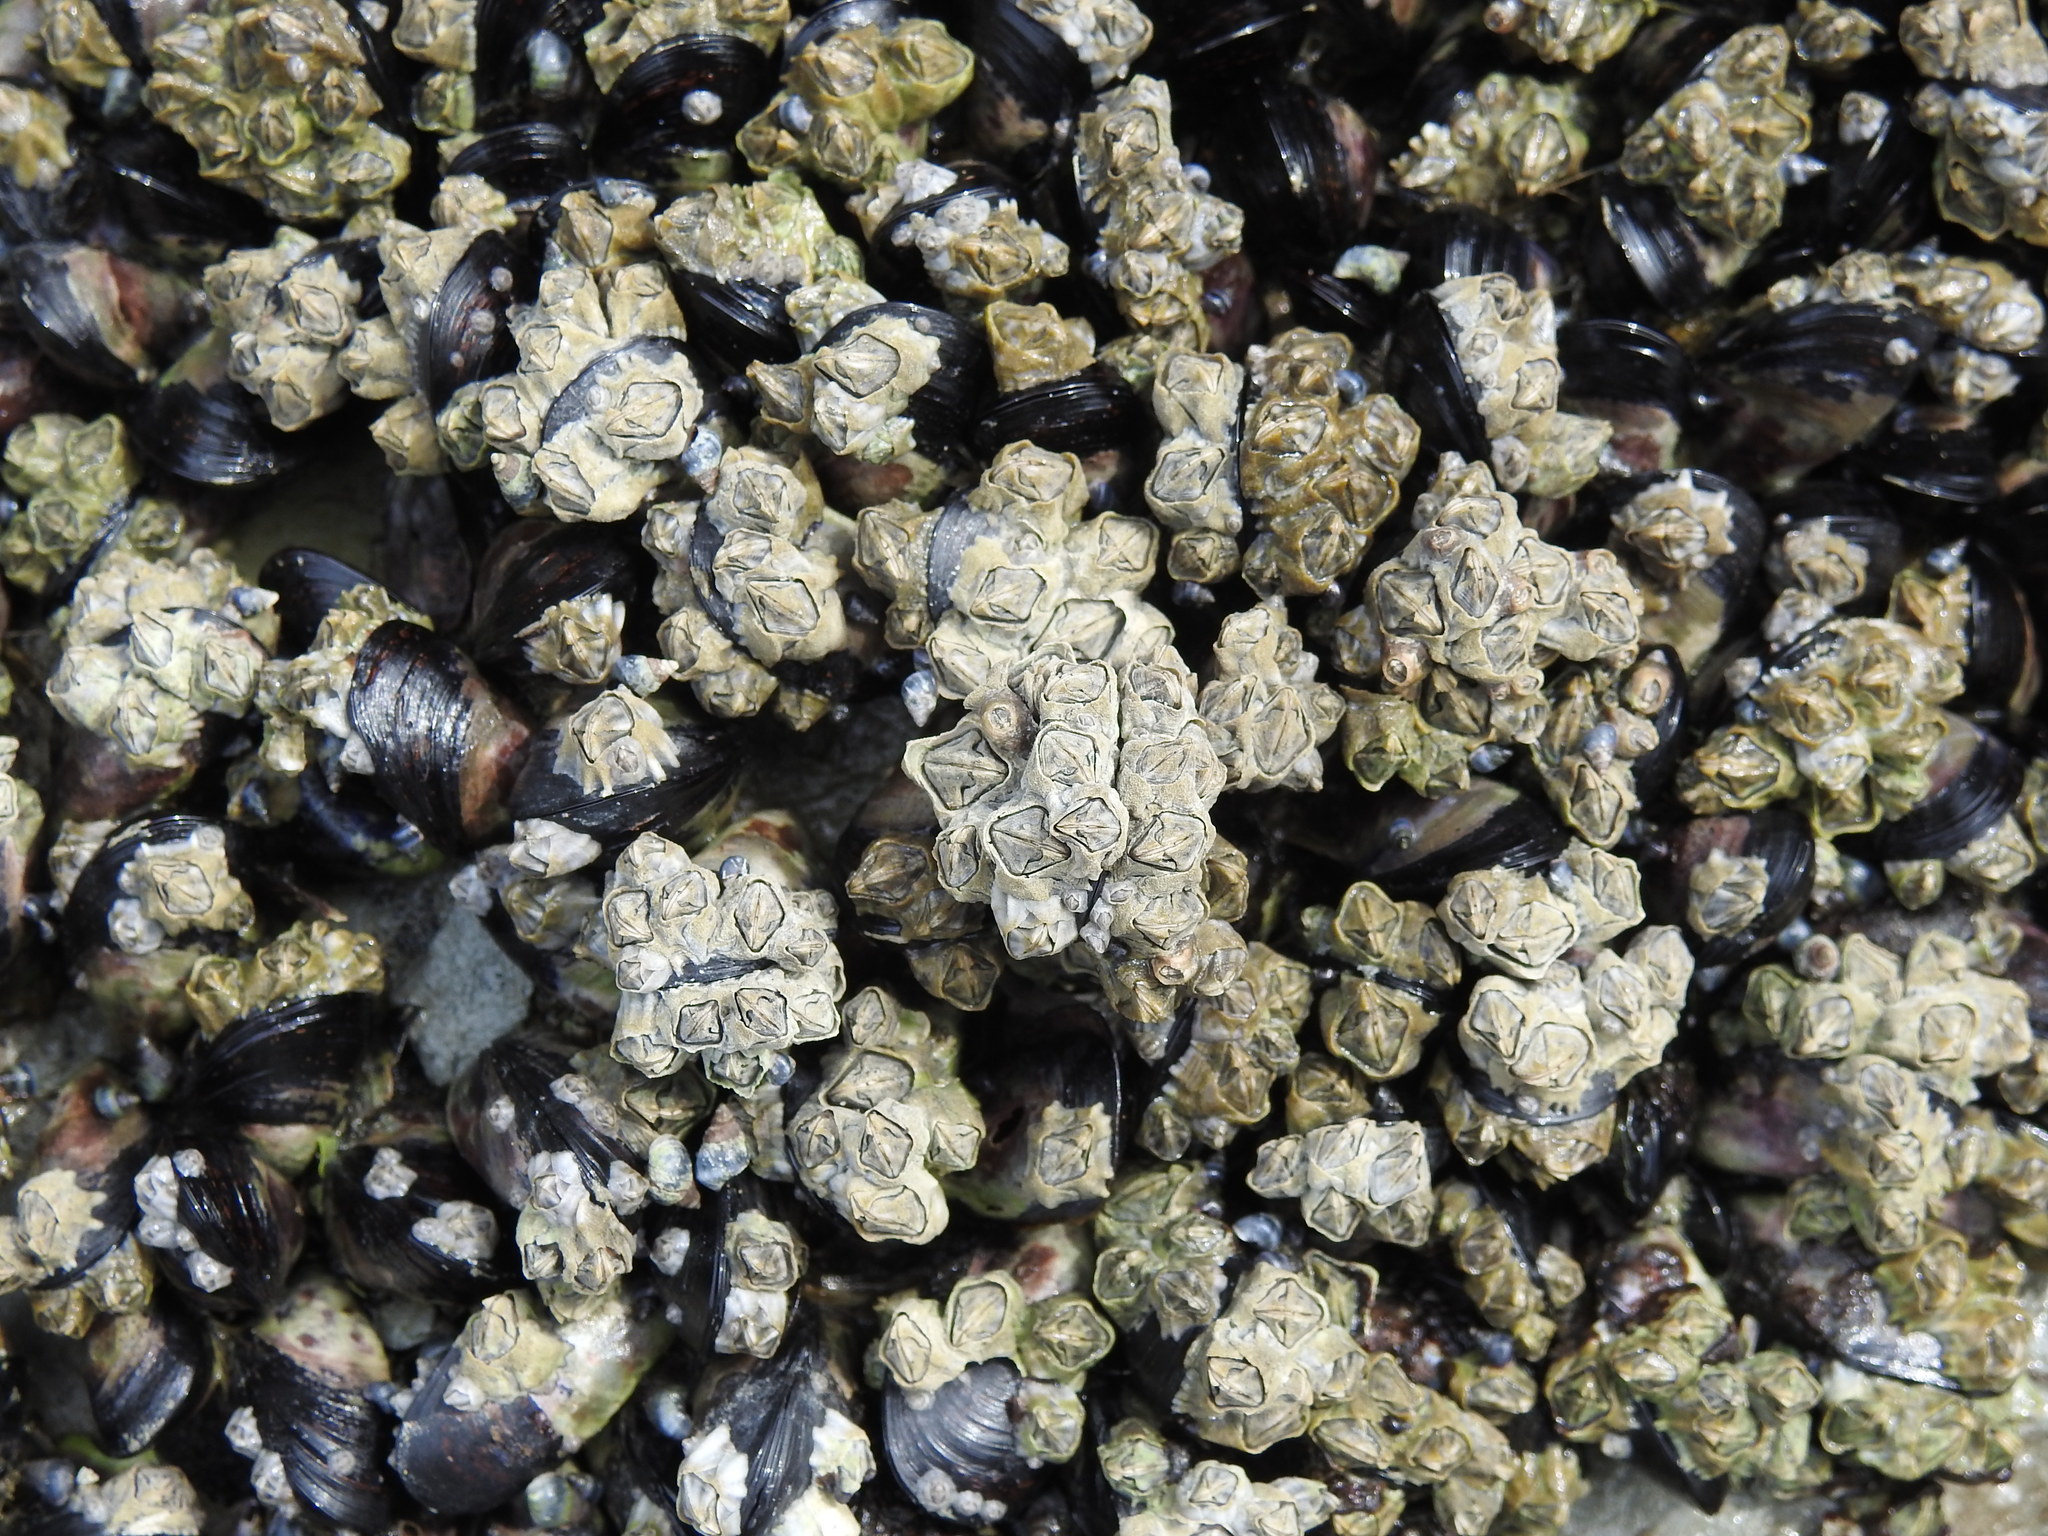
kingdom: Animalia
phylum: Arthropoda
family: Elminiidae
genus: Austrominius
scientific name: Austrominius modestus
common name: Australasian barnacle
